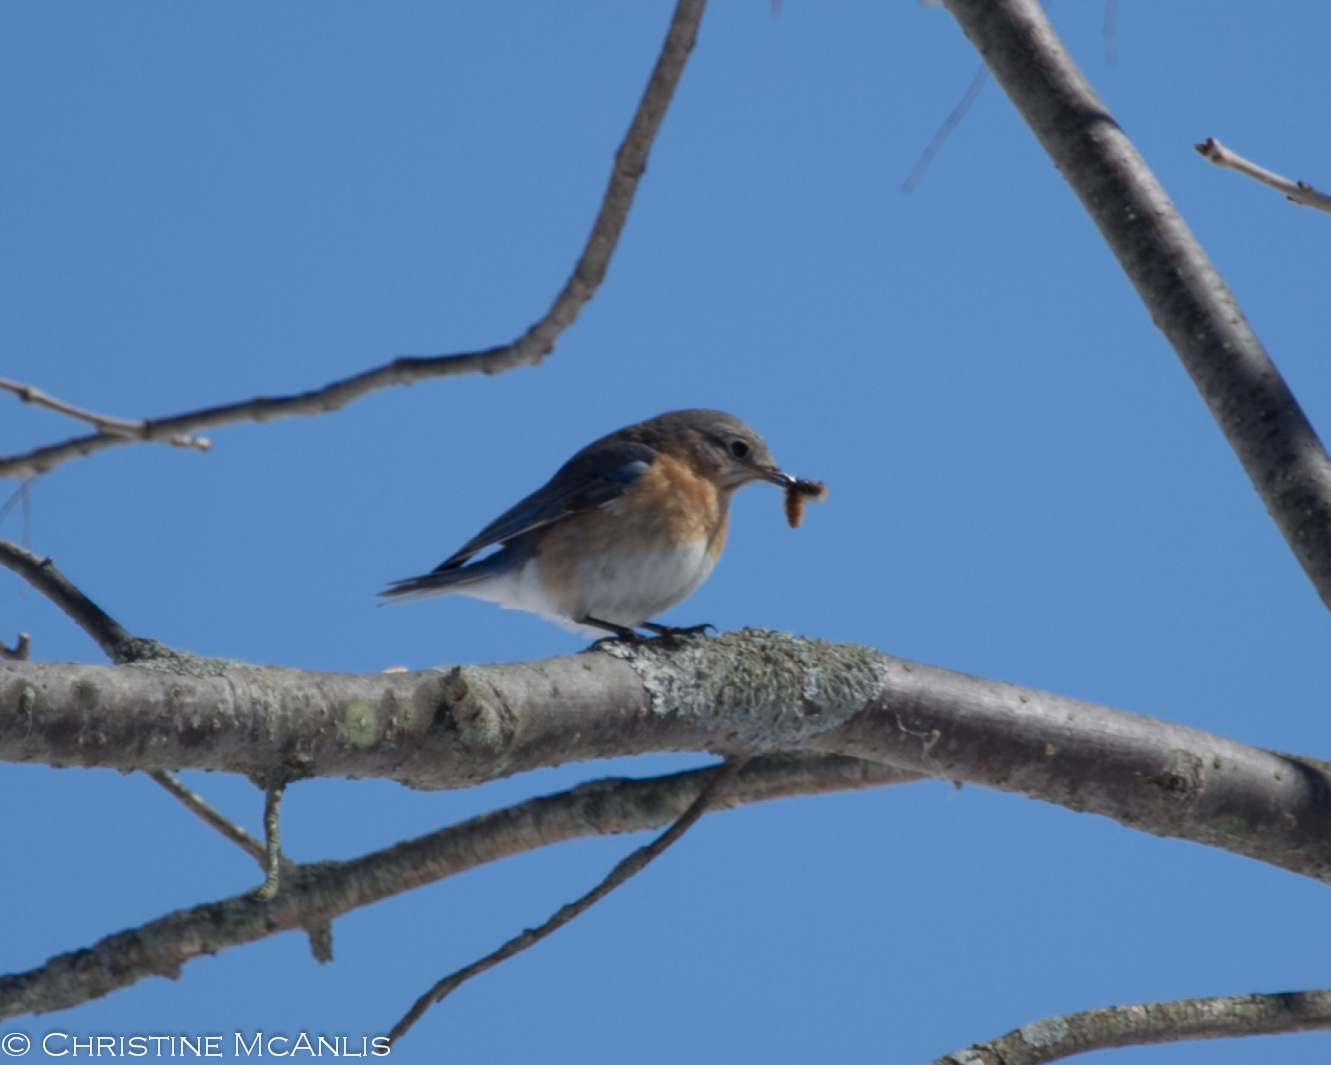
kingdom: Animalia
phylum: Chordata
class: Aves
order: Passeriformes
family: Turdidae
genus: Sialia
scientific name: Sialia sialis
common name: Eastern bluebird
